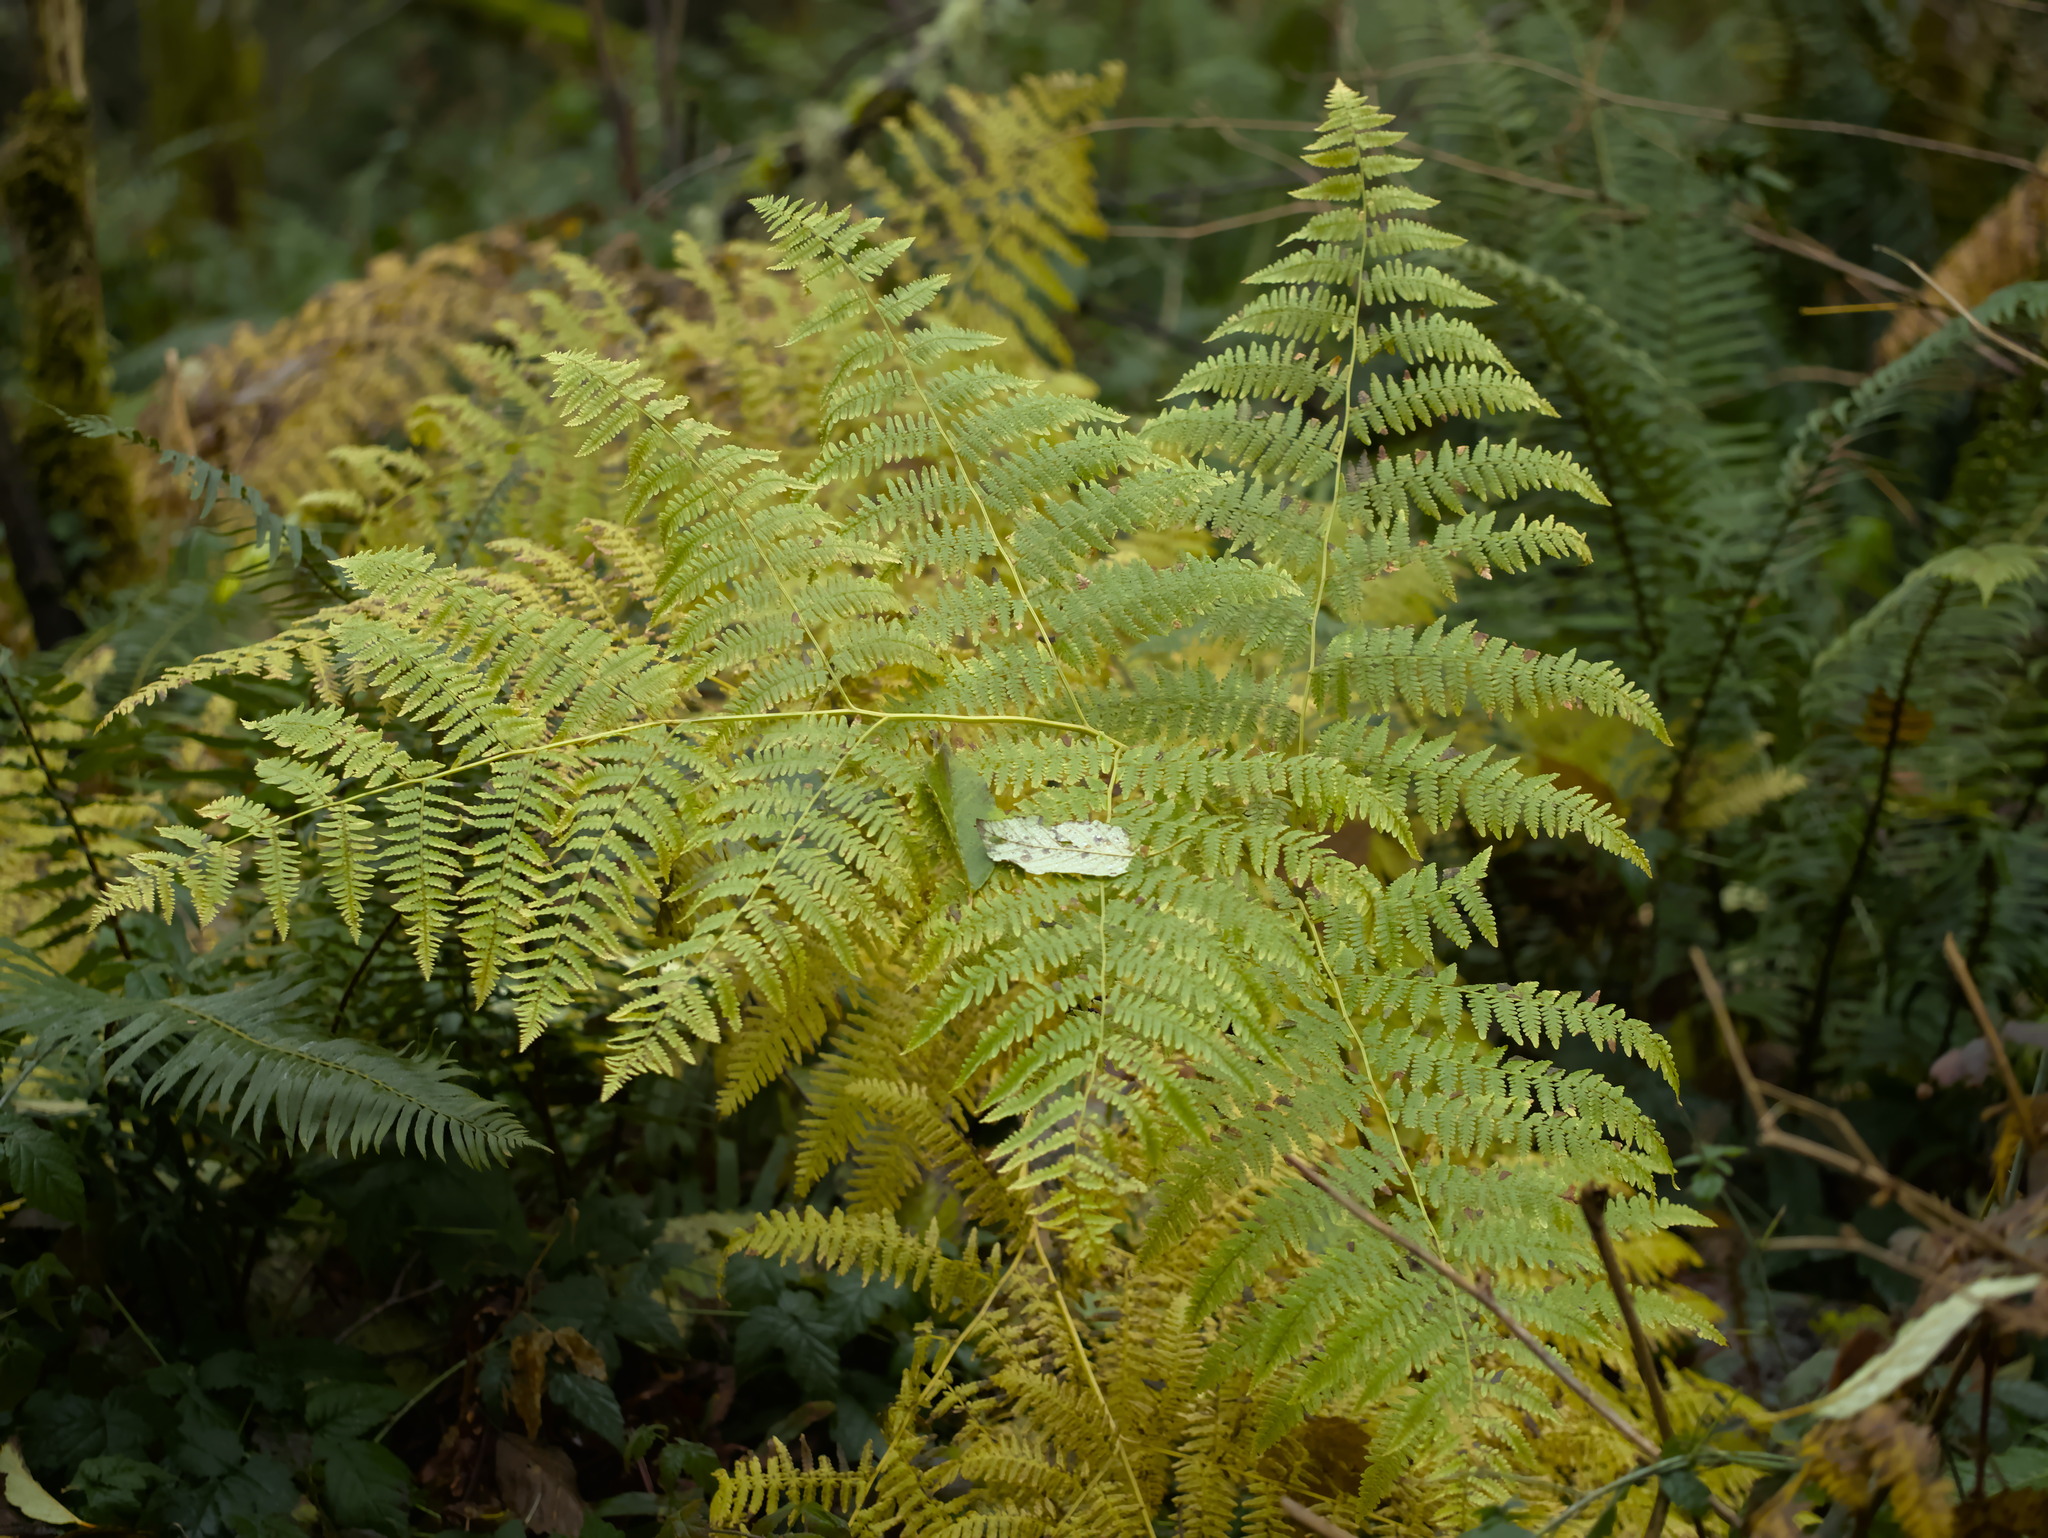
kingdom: Plantae
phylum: Tracheophyta
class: Polypodiopsida
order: Polypodiales
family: Dennstaedtiaceae
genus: Pteridium
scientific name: Pteridium aquilinum
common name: Bracken
